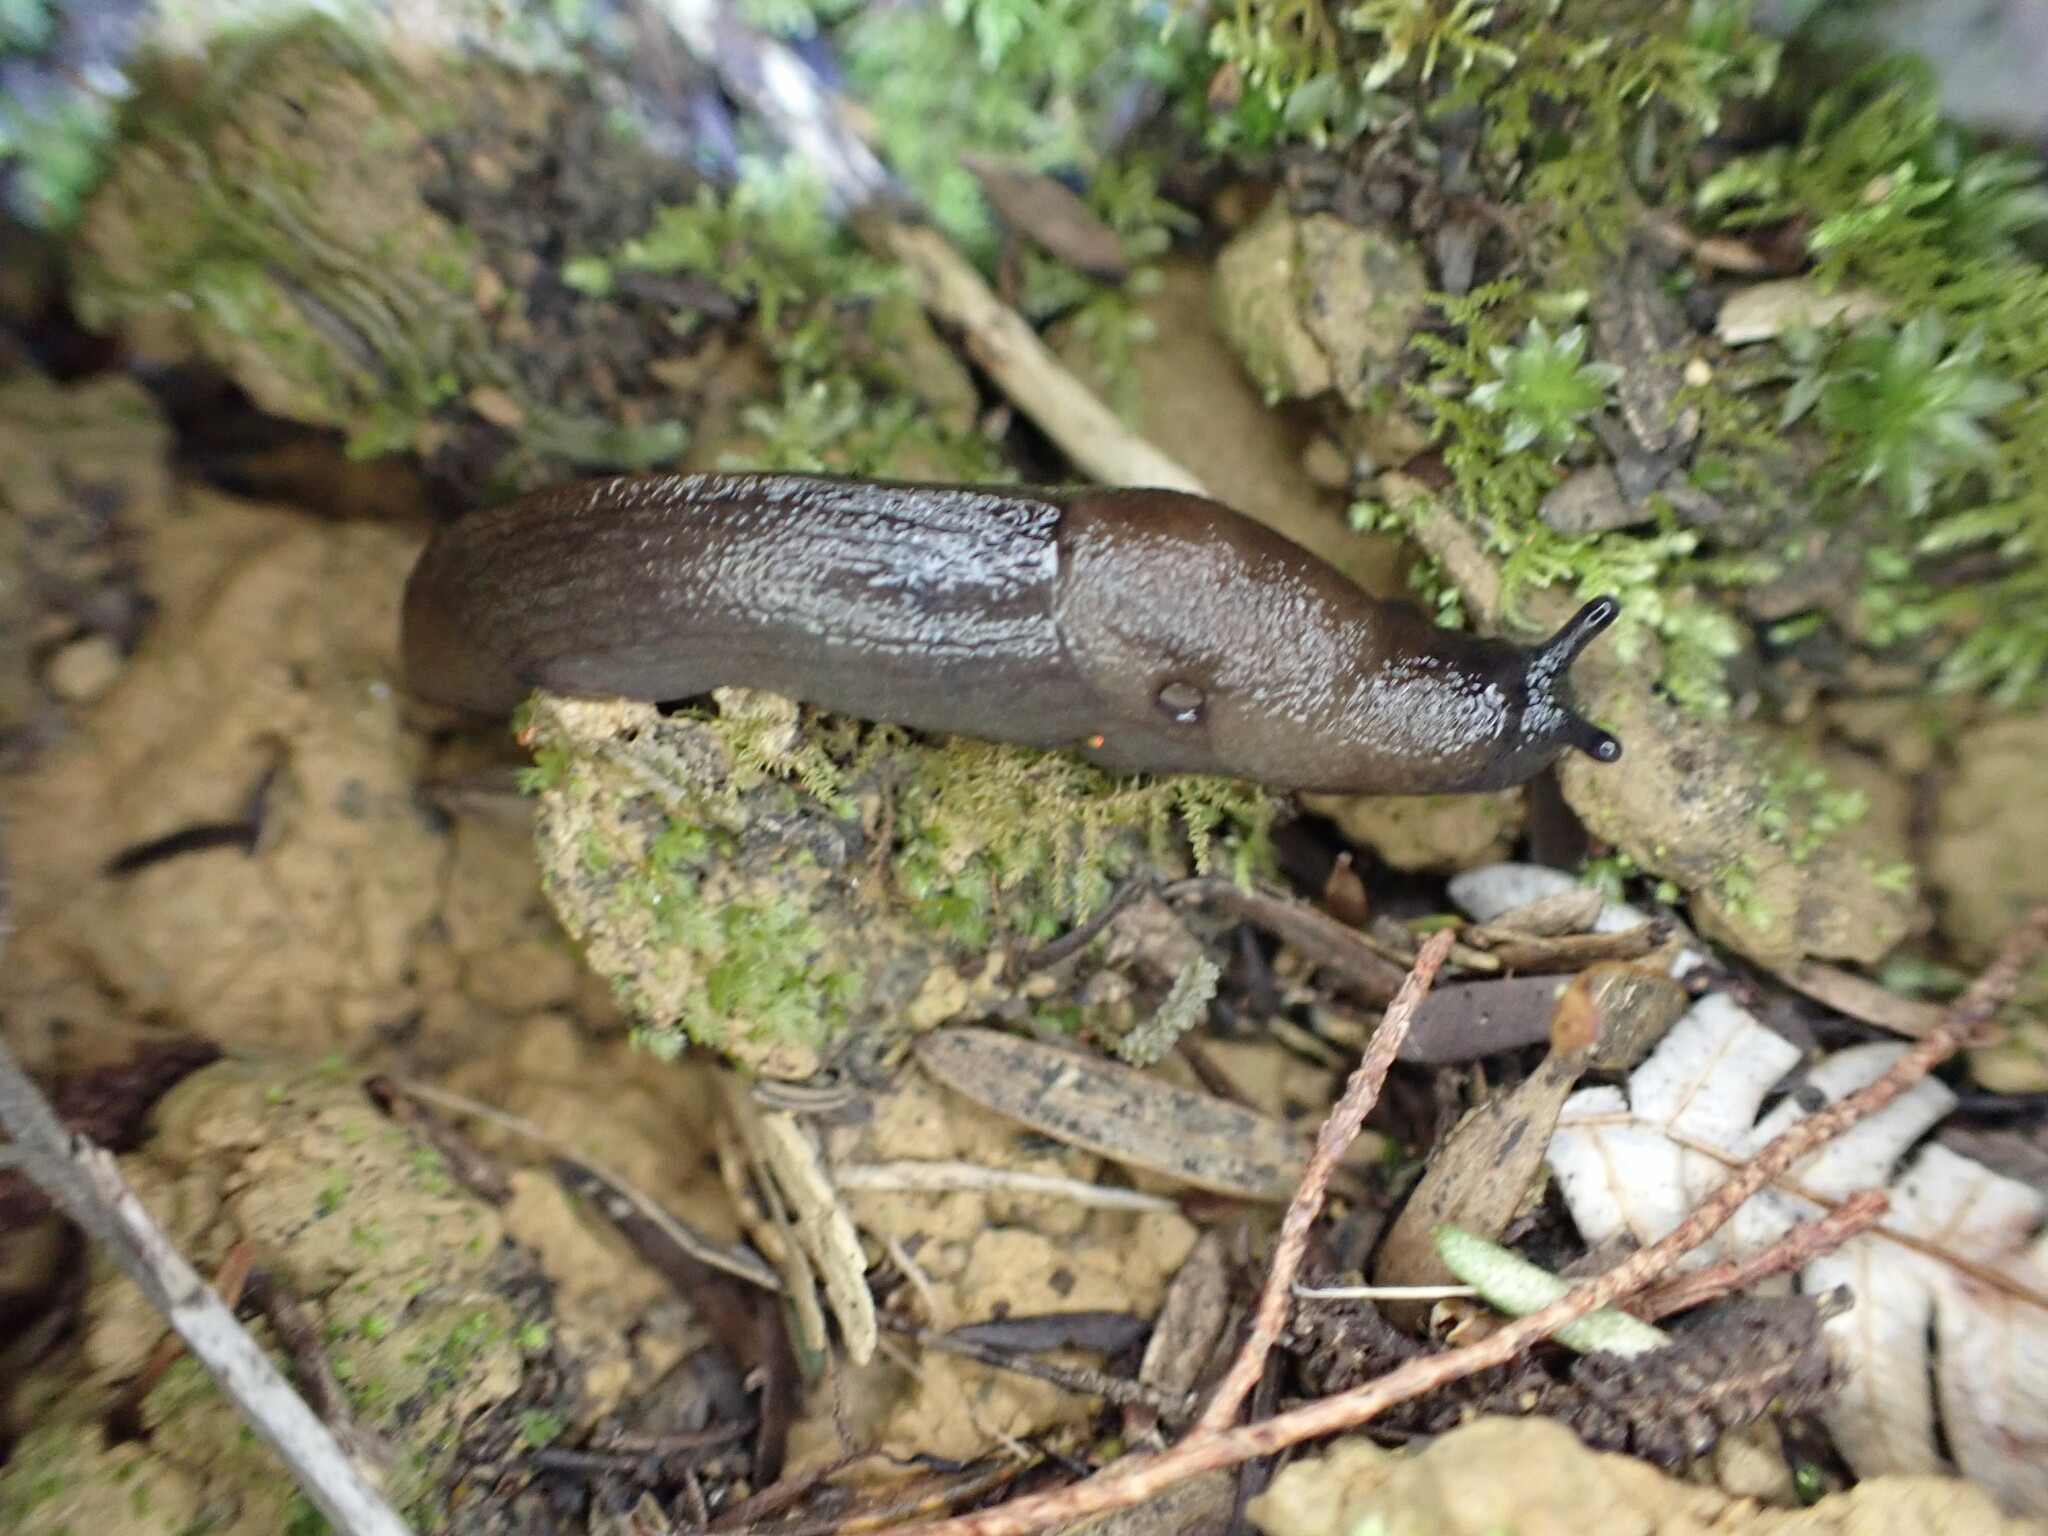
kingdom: Animalia
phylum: Mollusca
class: Gastropoda
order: Stylommatophora
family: Milacidae
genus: Milax
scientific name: Milax gagates
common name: Greenhouse slug
